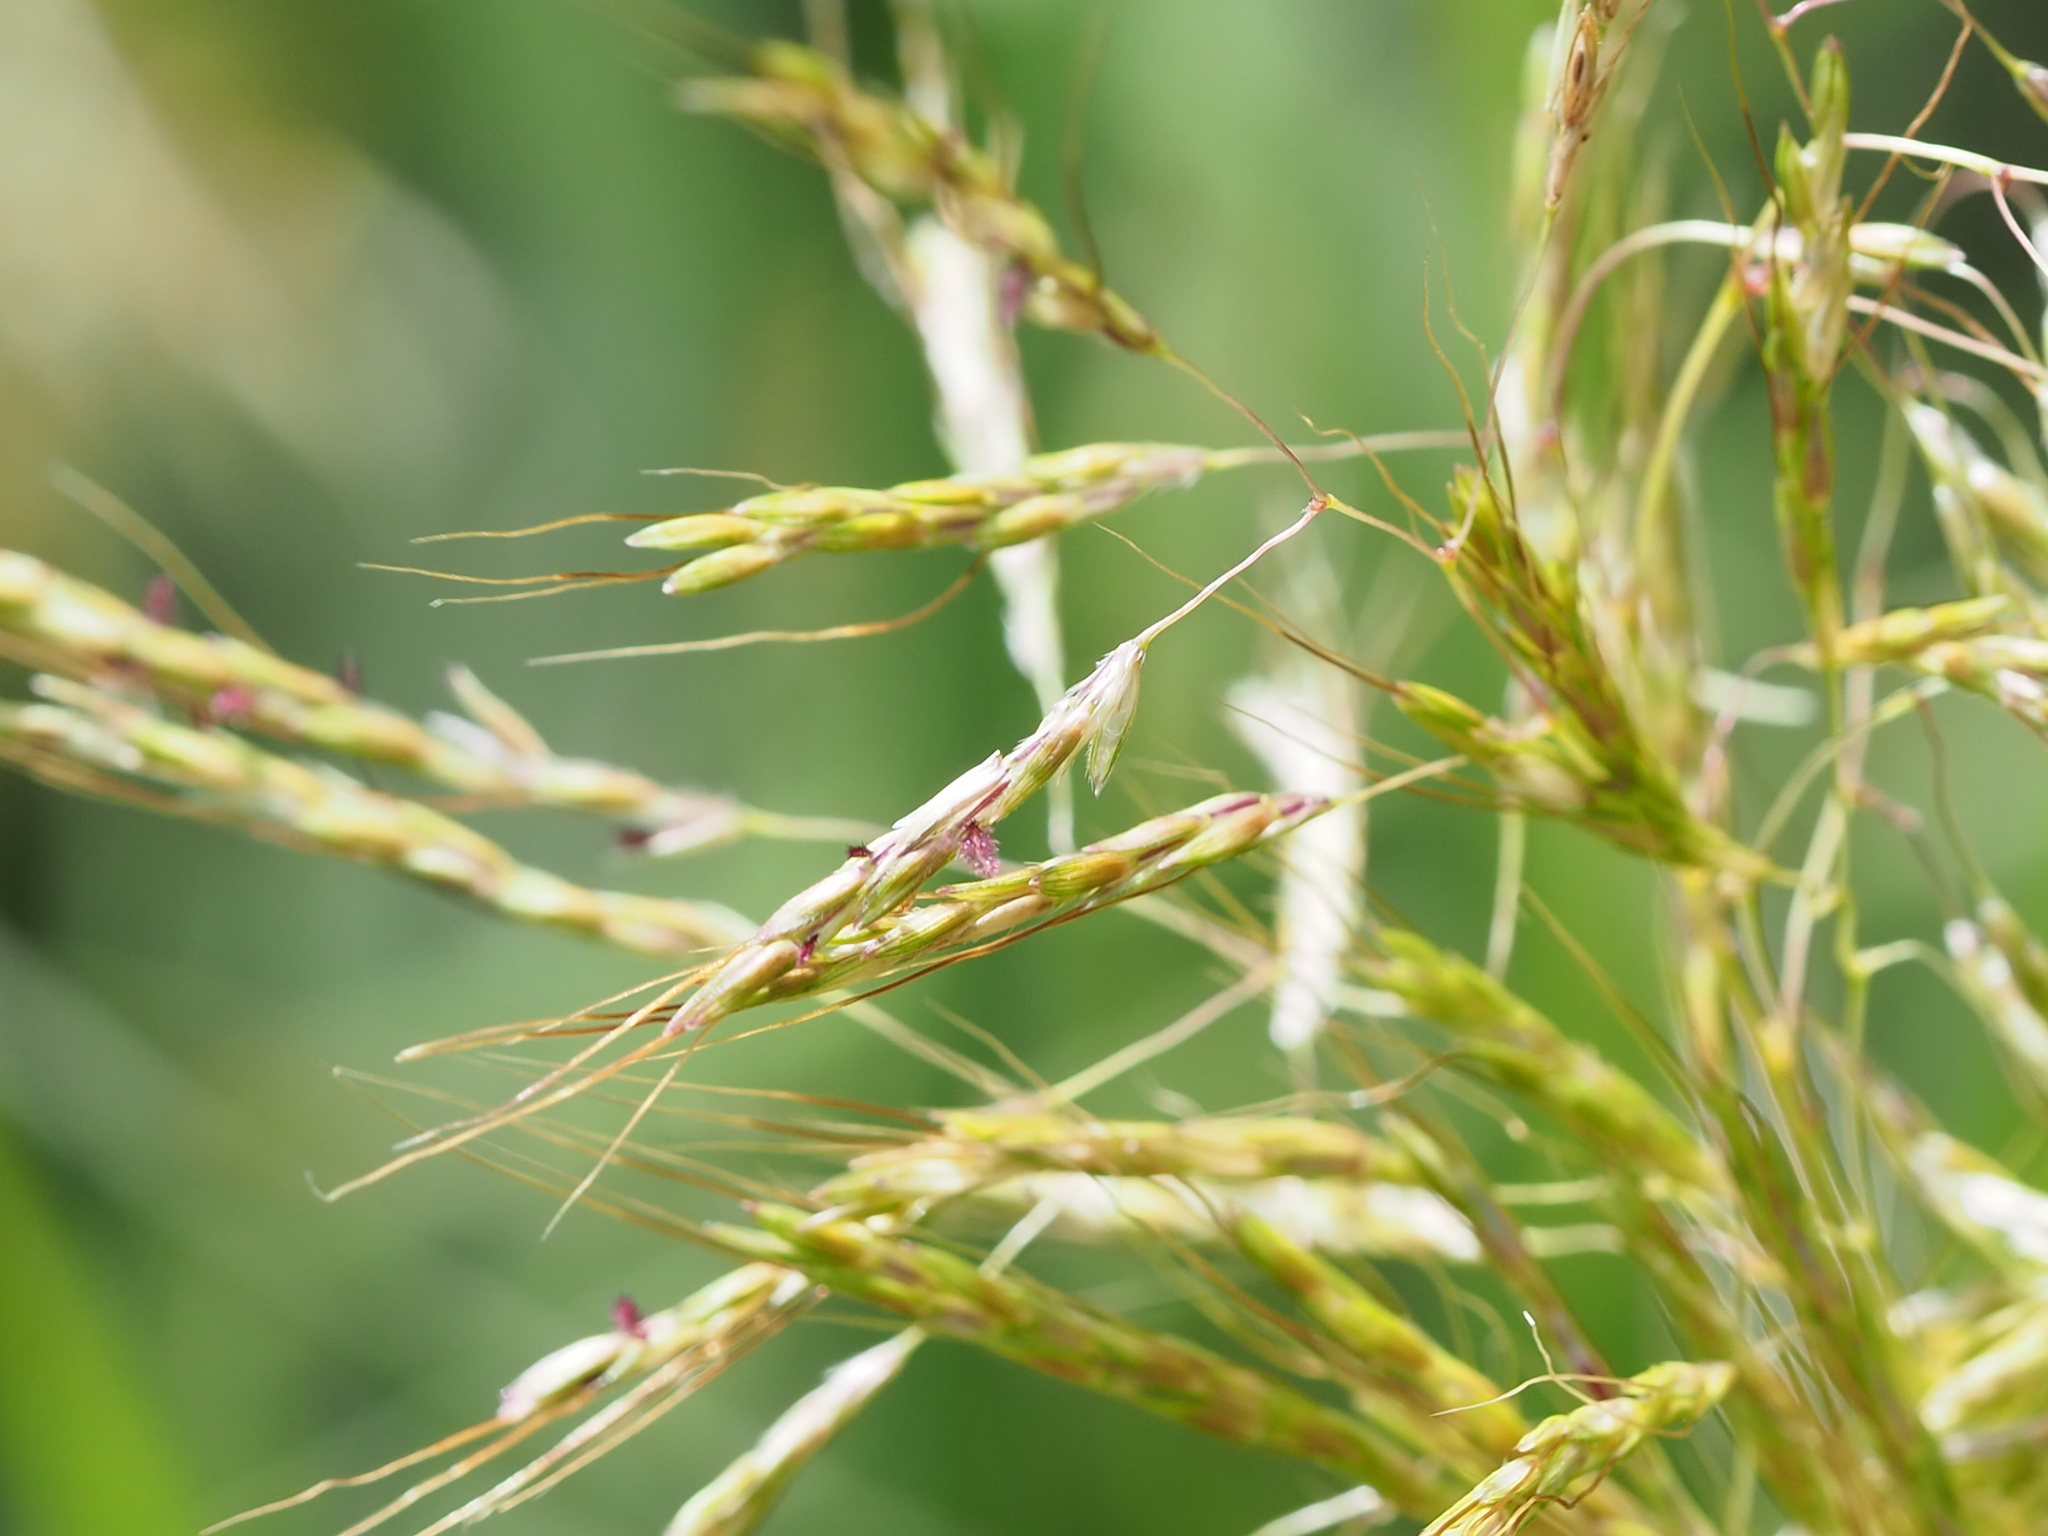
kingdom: Plantae
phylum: Tracheophyta
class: Liliopsida
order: Poales
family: Poaceae
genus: Capillipedium
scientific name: Capillipedium spicigerum
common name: Scented-top grass
